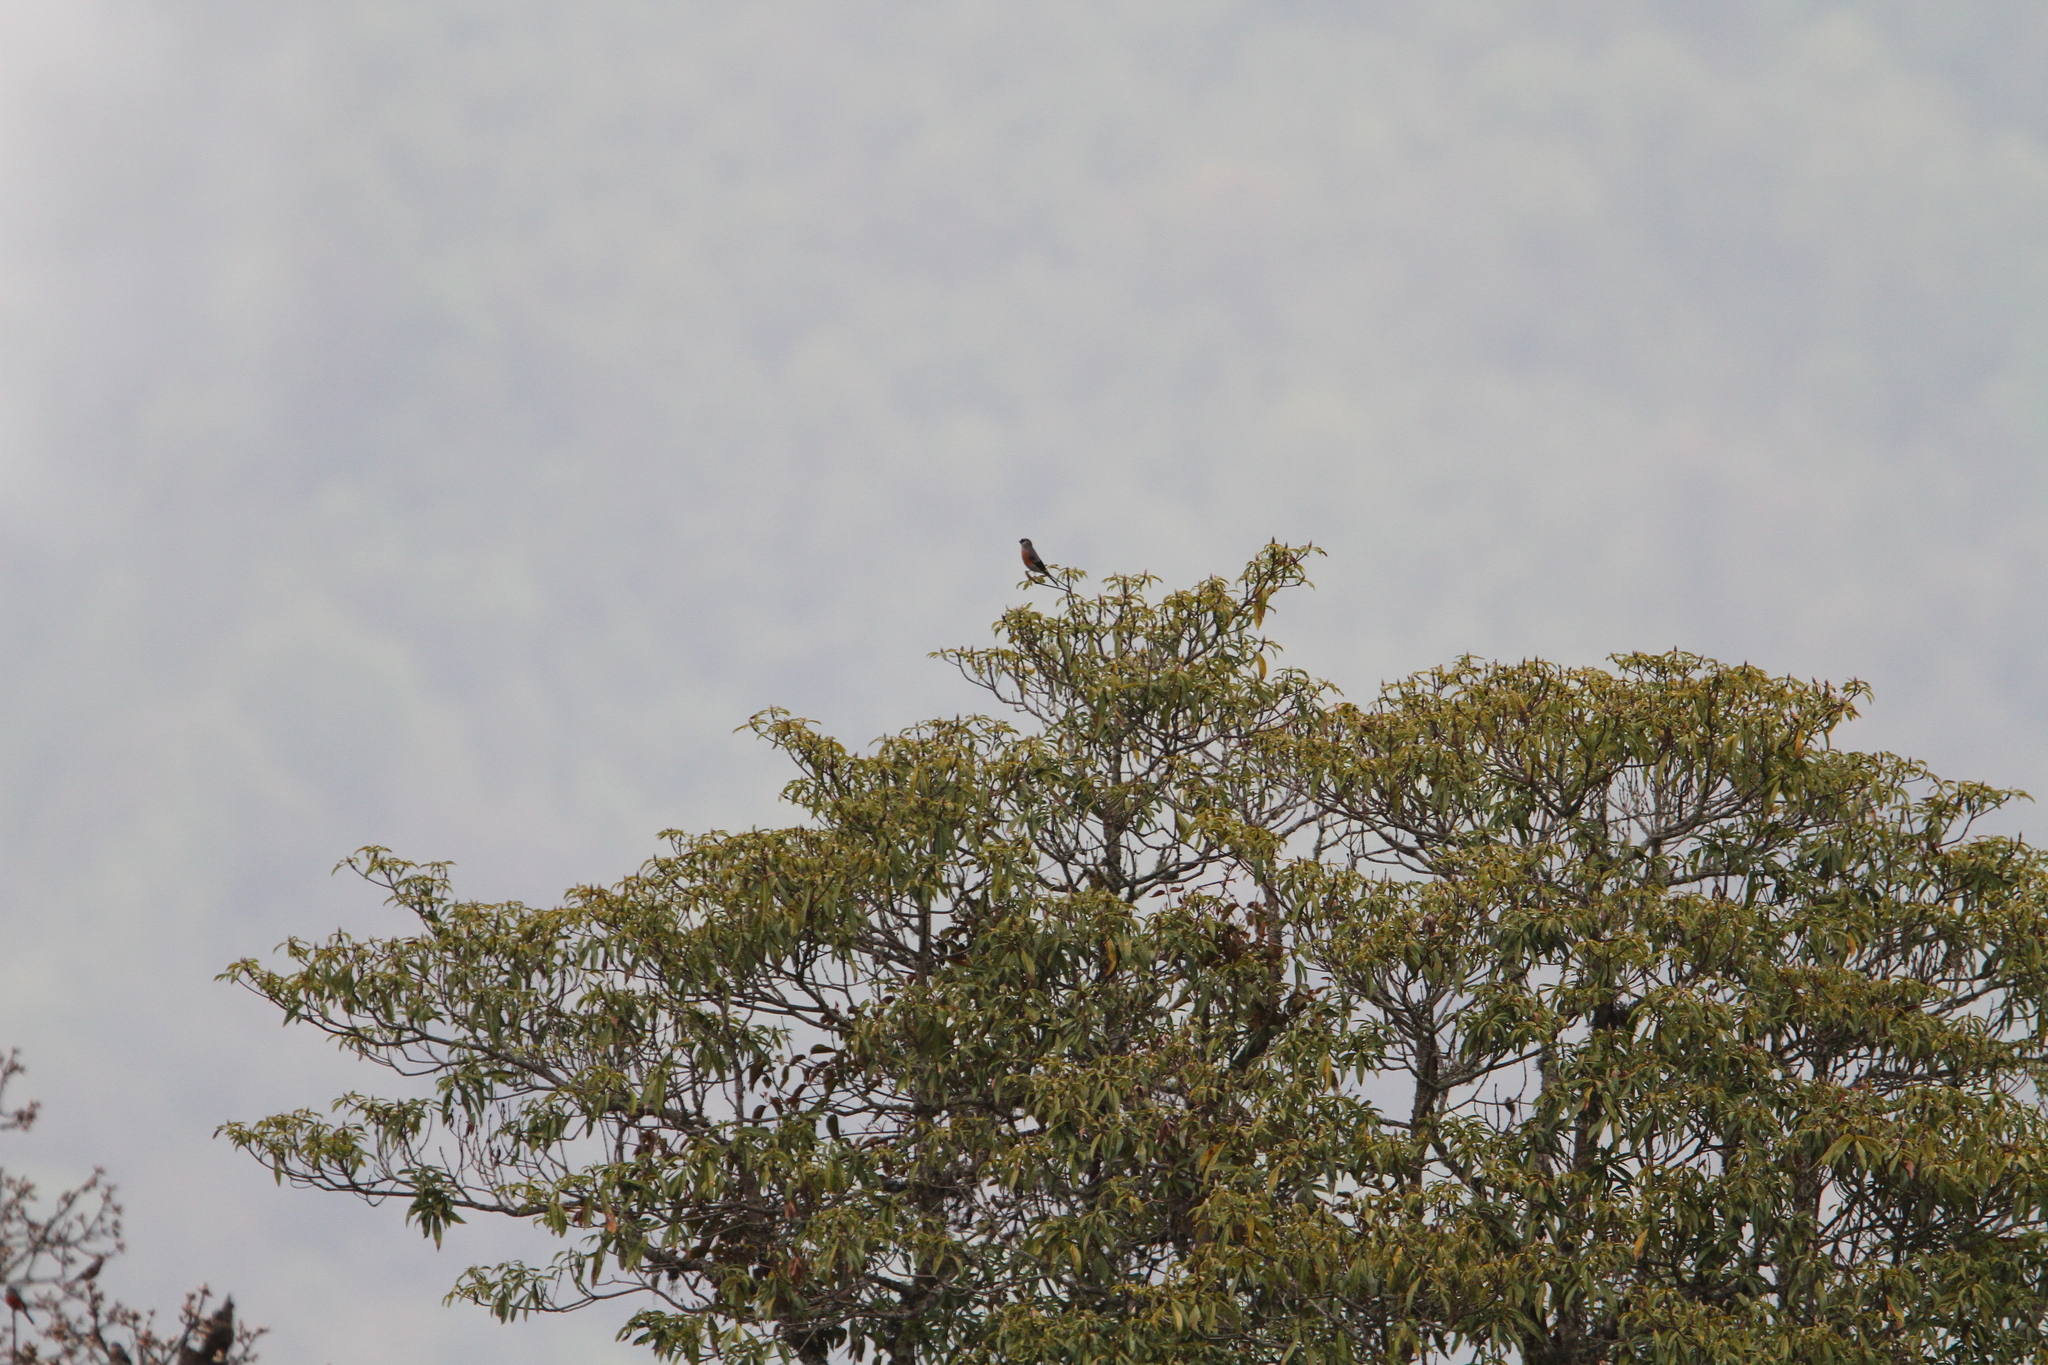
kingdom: Animalia
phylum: Chordata
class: Aves
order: Passeriformes
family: Fringillidae
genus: Pyrrhula
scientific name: Pyrrhula erythaca
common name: Grey-headed bullfinch
